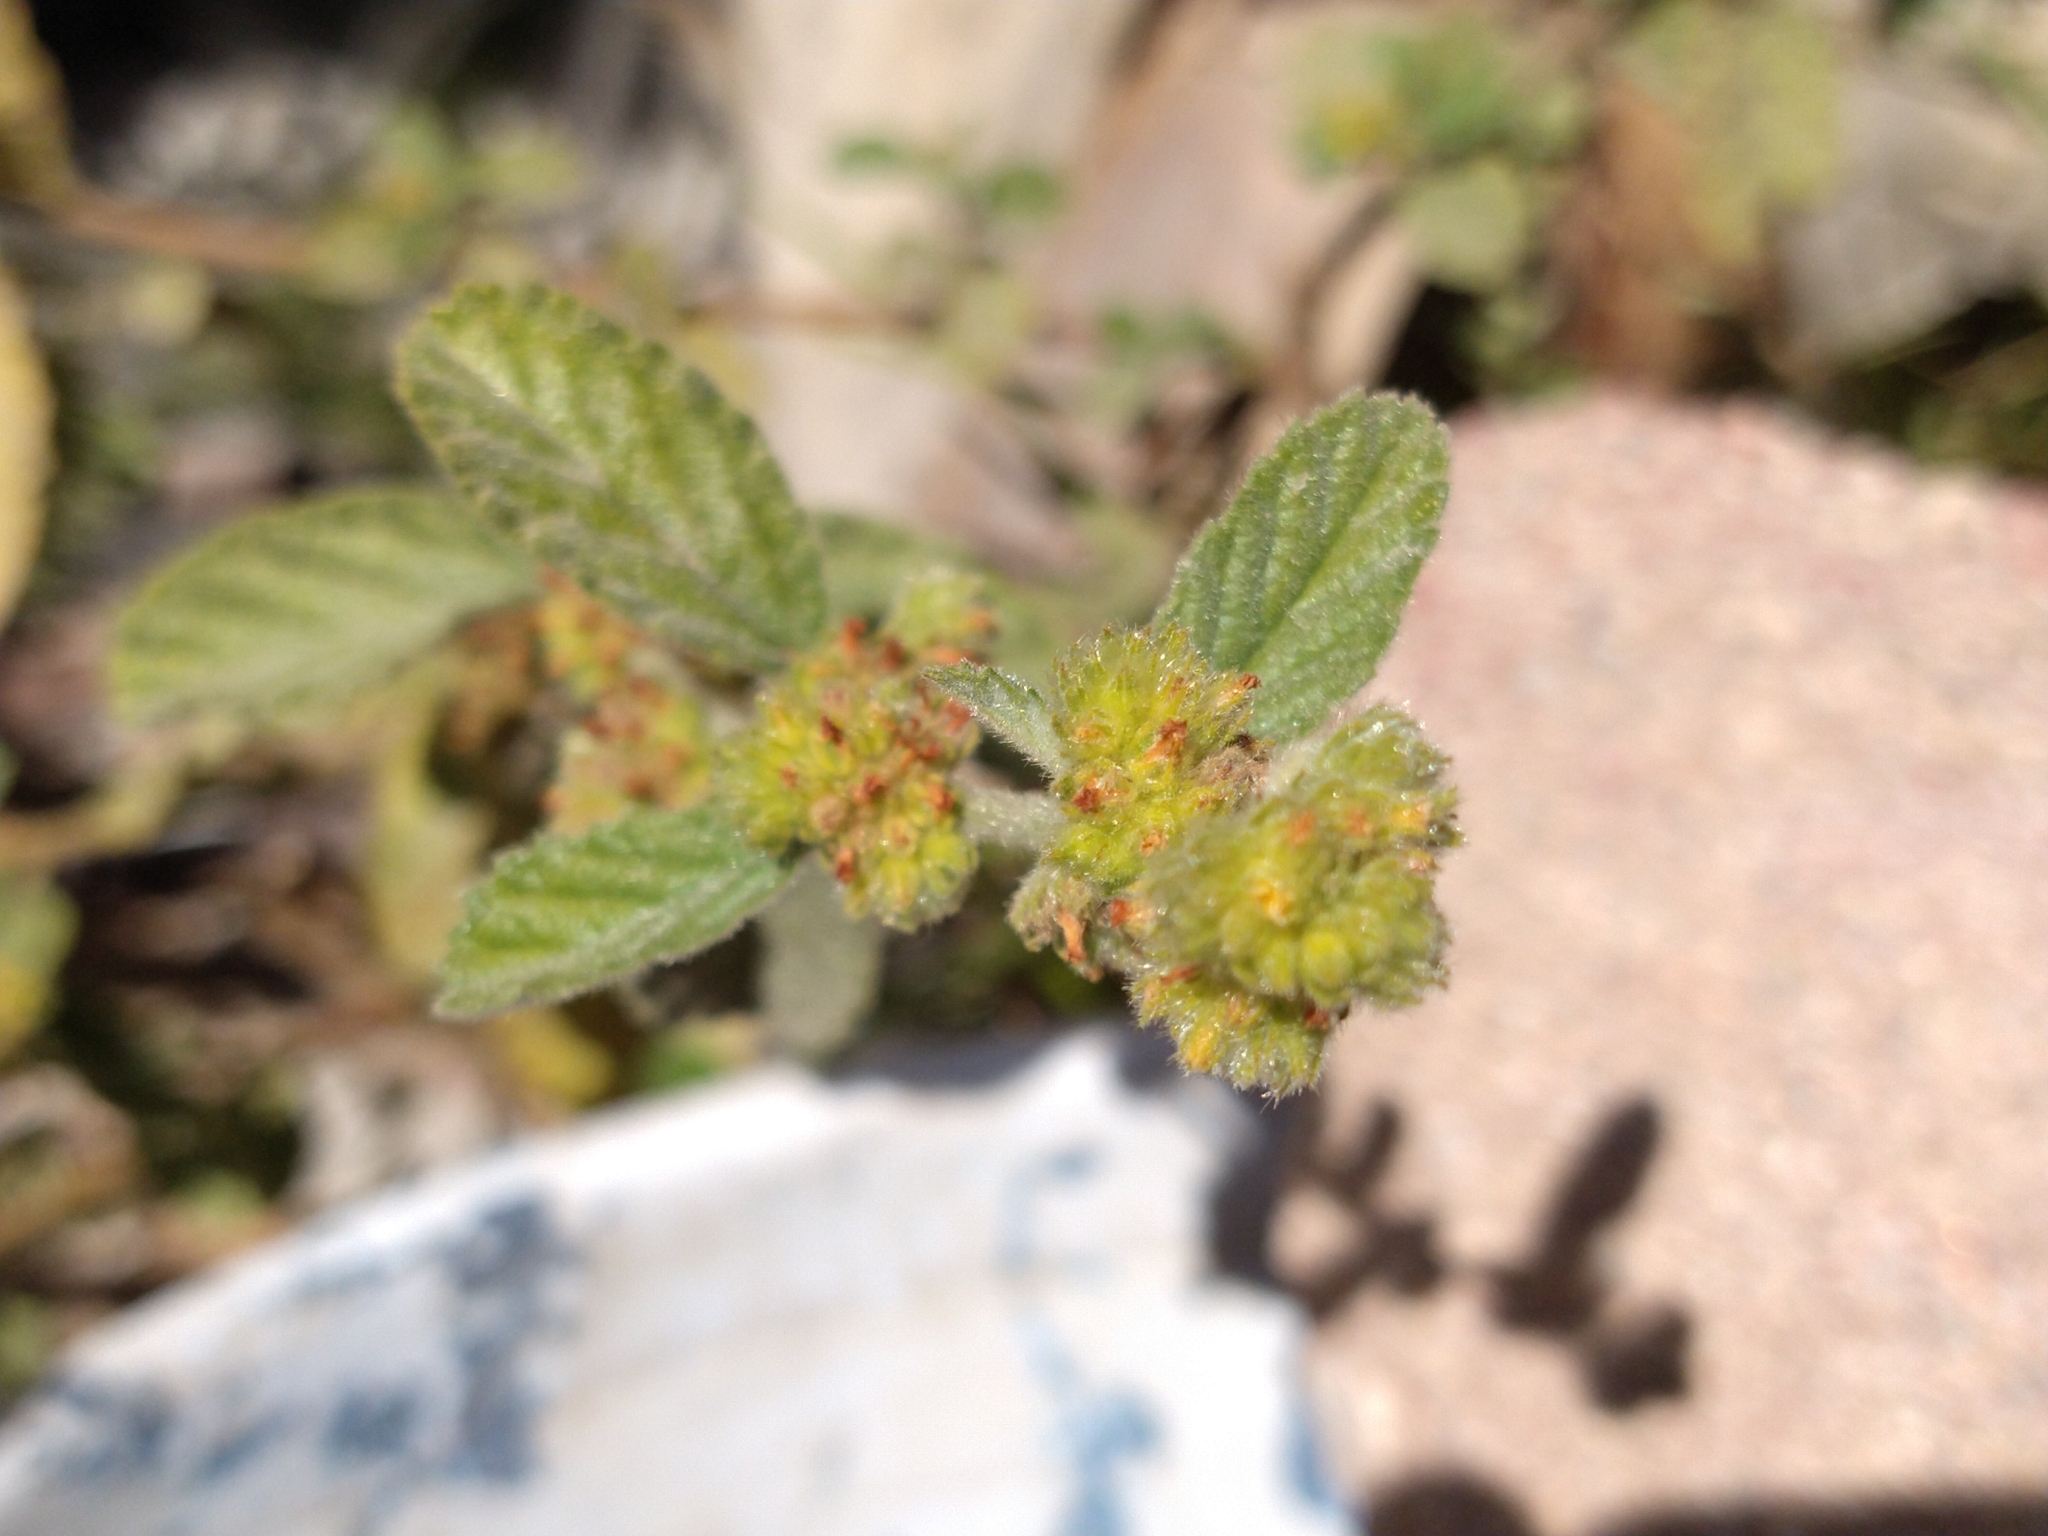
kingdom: Plantae
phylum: Tracheophyta
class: Magnoliopsida
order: Malvales
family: Malvaceae
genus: Waltheria
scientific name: Waltheria indica
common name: Leather-coat
